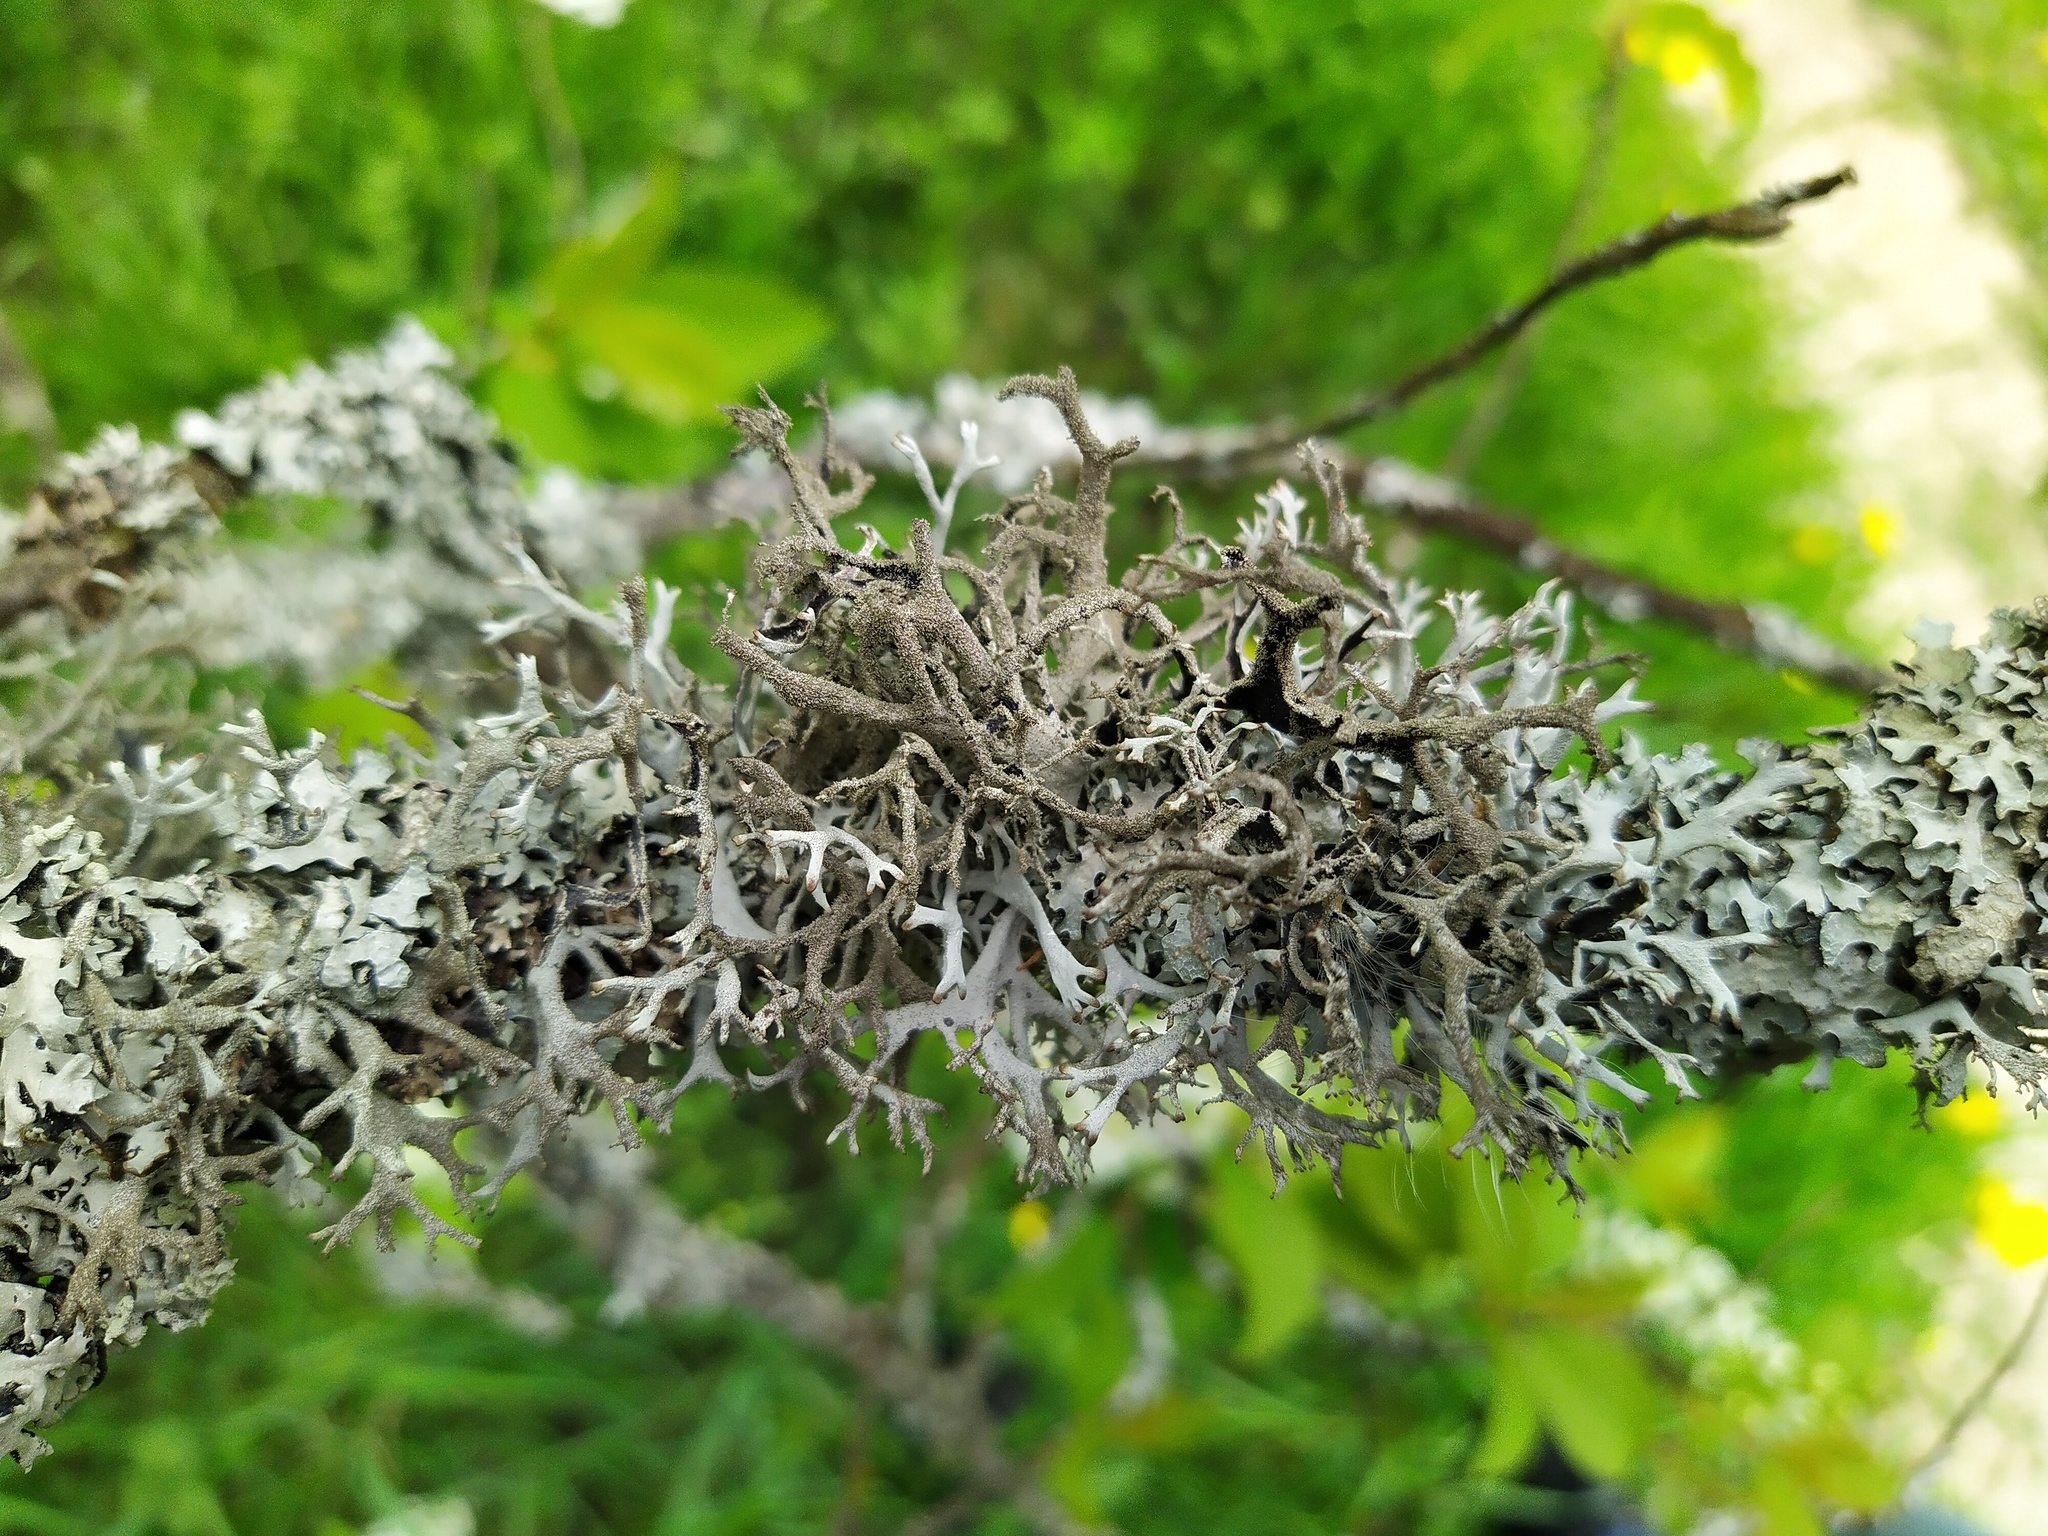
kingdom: Fungi
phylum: Ascomycota
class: Lecanoromycetes
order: Lecanorales
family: Parmeliaceae
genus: Pseudevernia
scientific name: Pseudevernia furfuracea
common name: Tree moss
